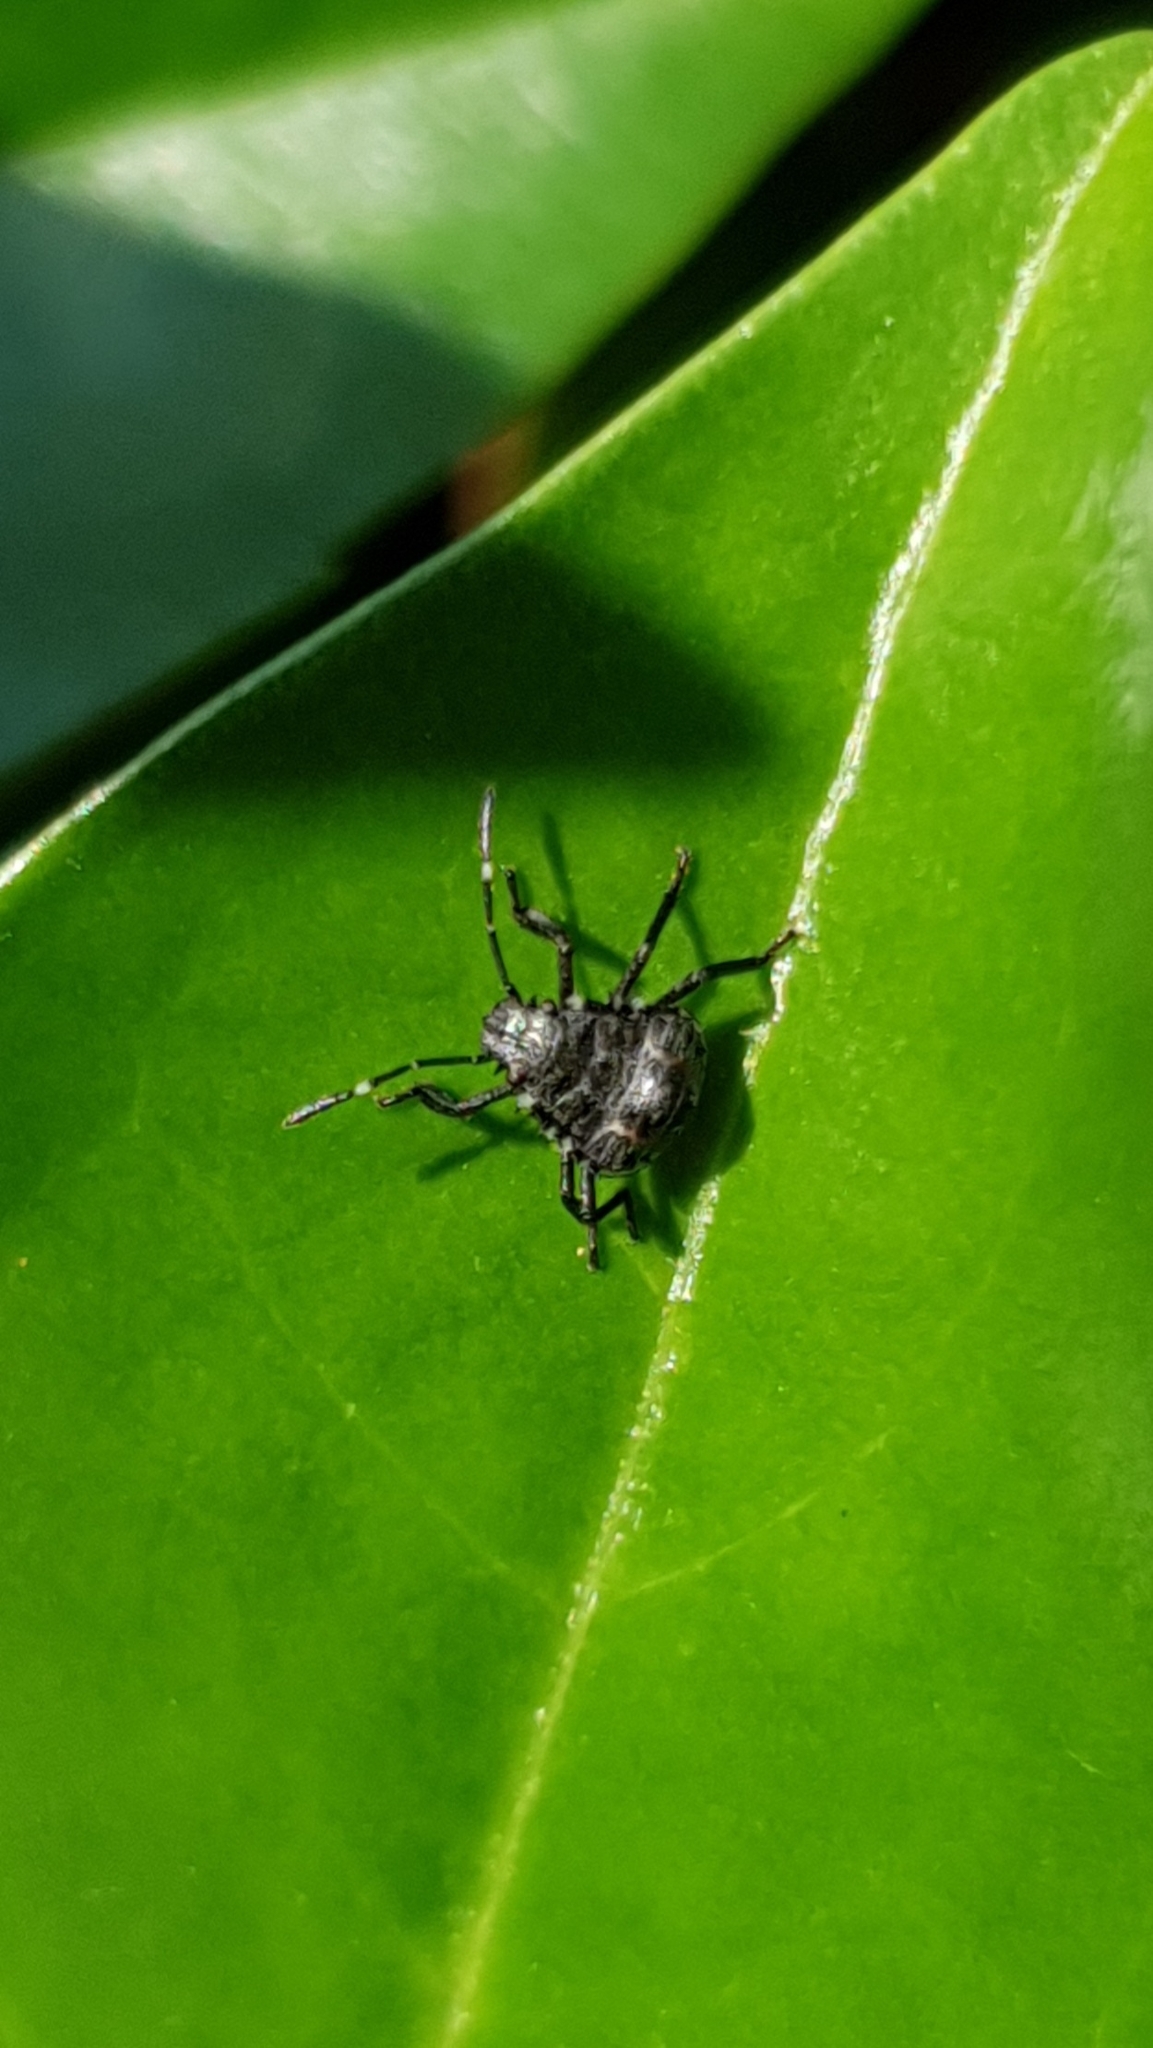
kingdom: Animalia
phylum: Arthropoda
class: Insecta
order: Hemiptera
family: Pentatomidae
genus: Halyomorpha
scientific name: Halyomorpha halys
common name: Brown marmorated stink bug
